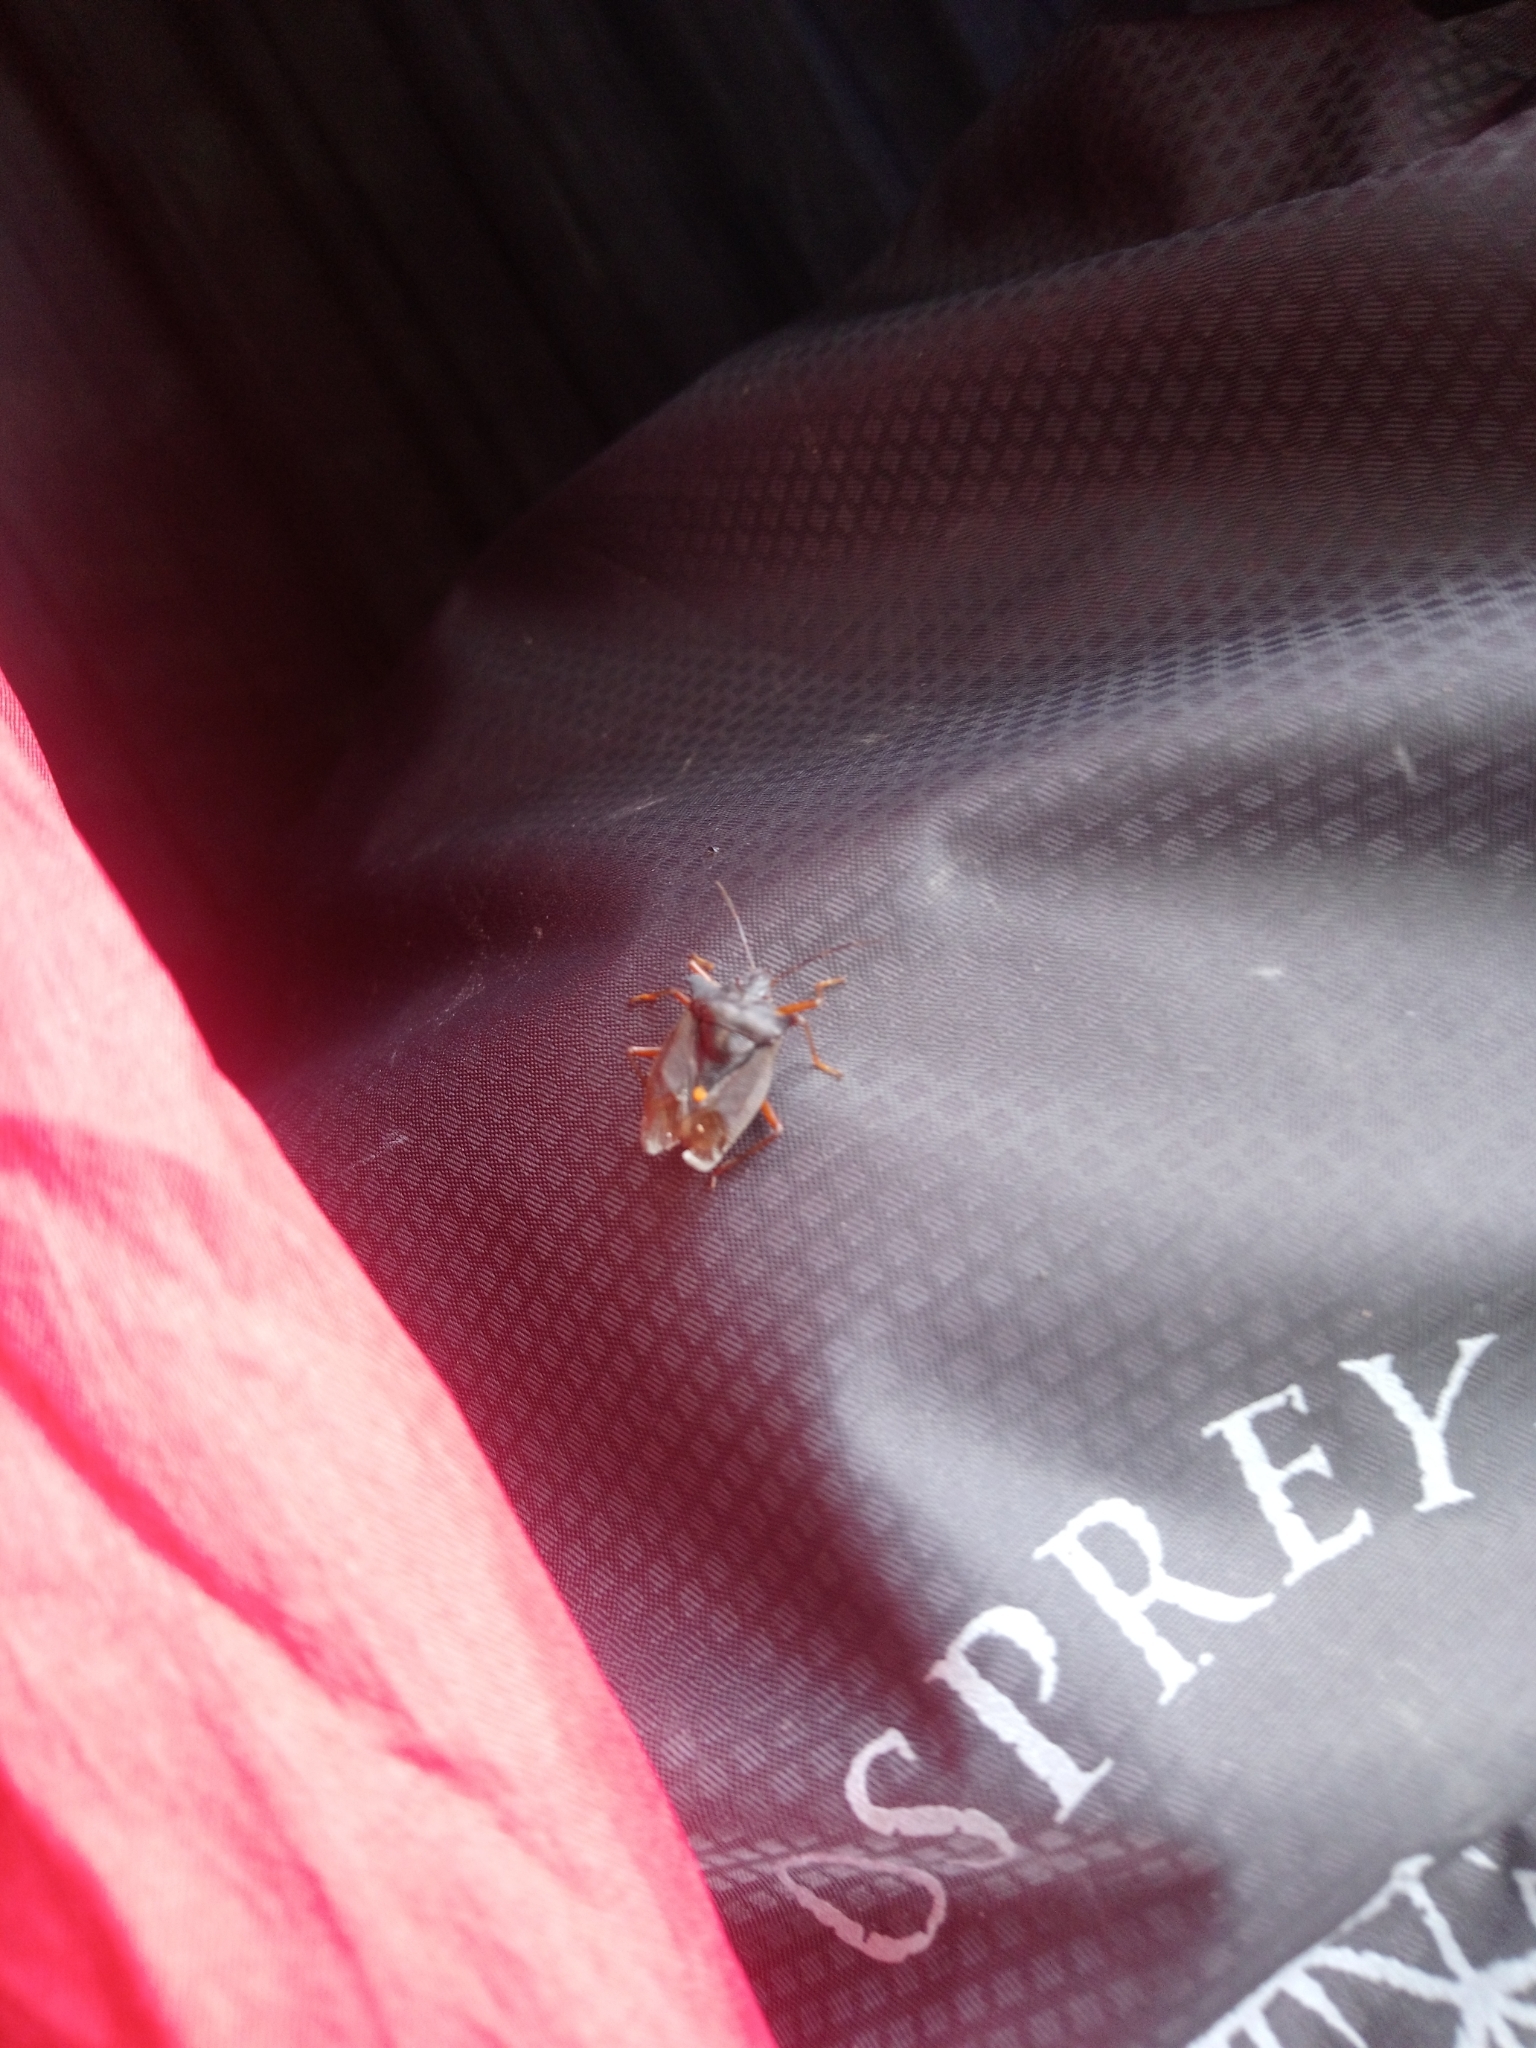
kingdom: Animalia
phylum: Arthropoda
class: Insecta
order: Hemiptera
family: Pentatomidae
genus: Pentatoma
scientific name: Pentatoma rufipes
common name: Forest bug
